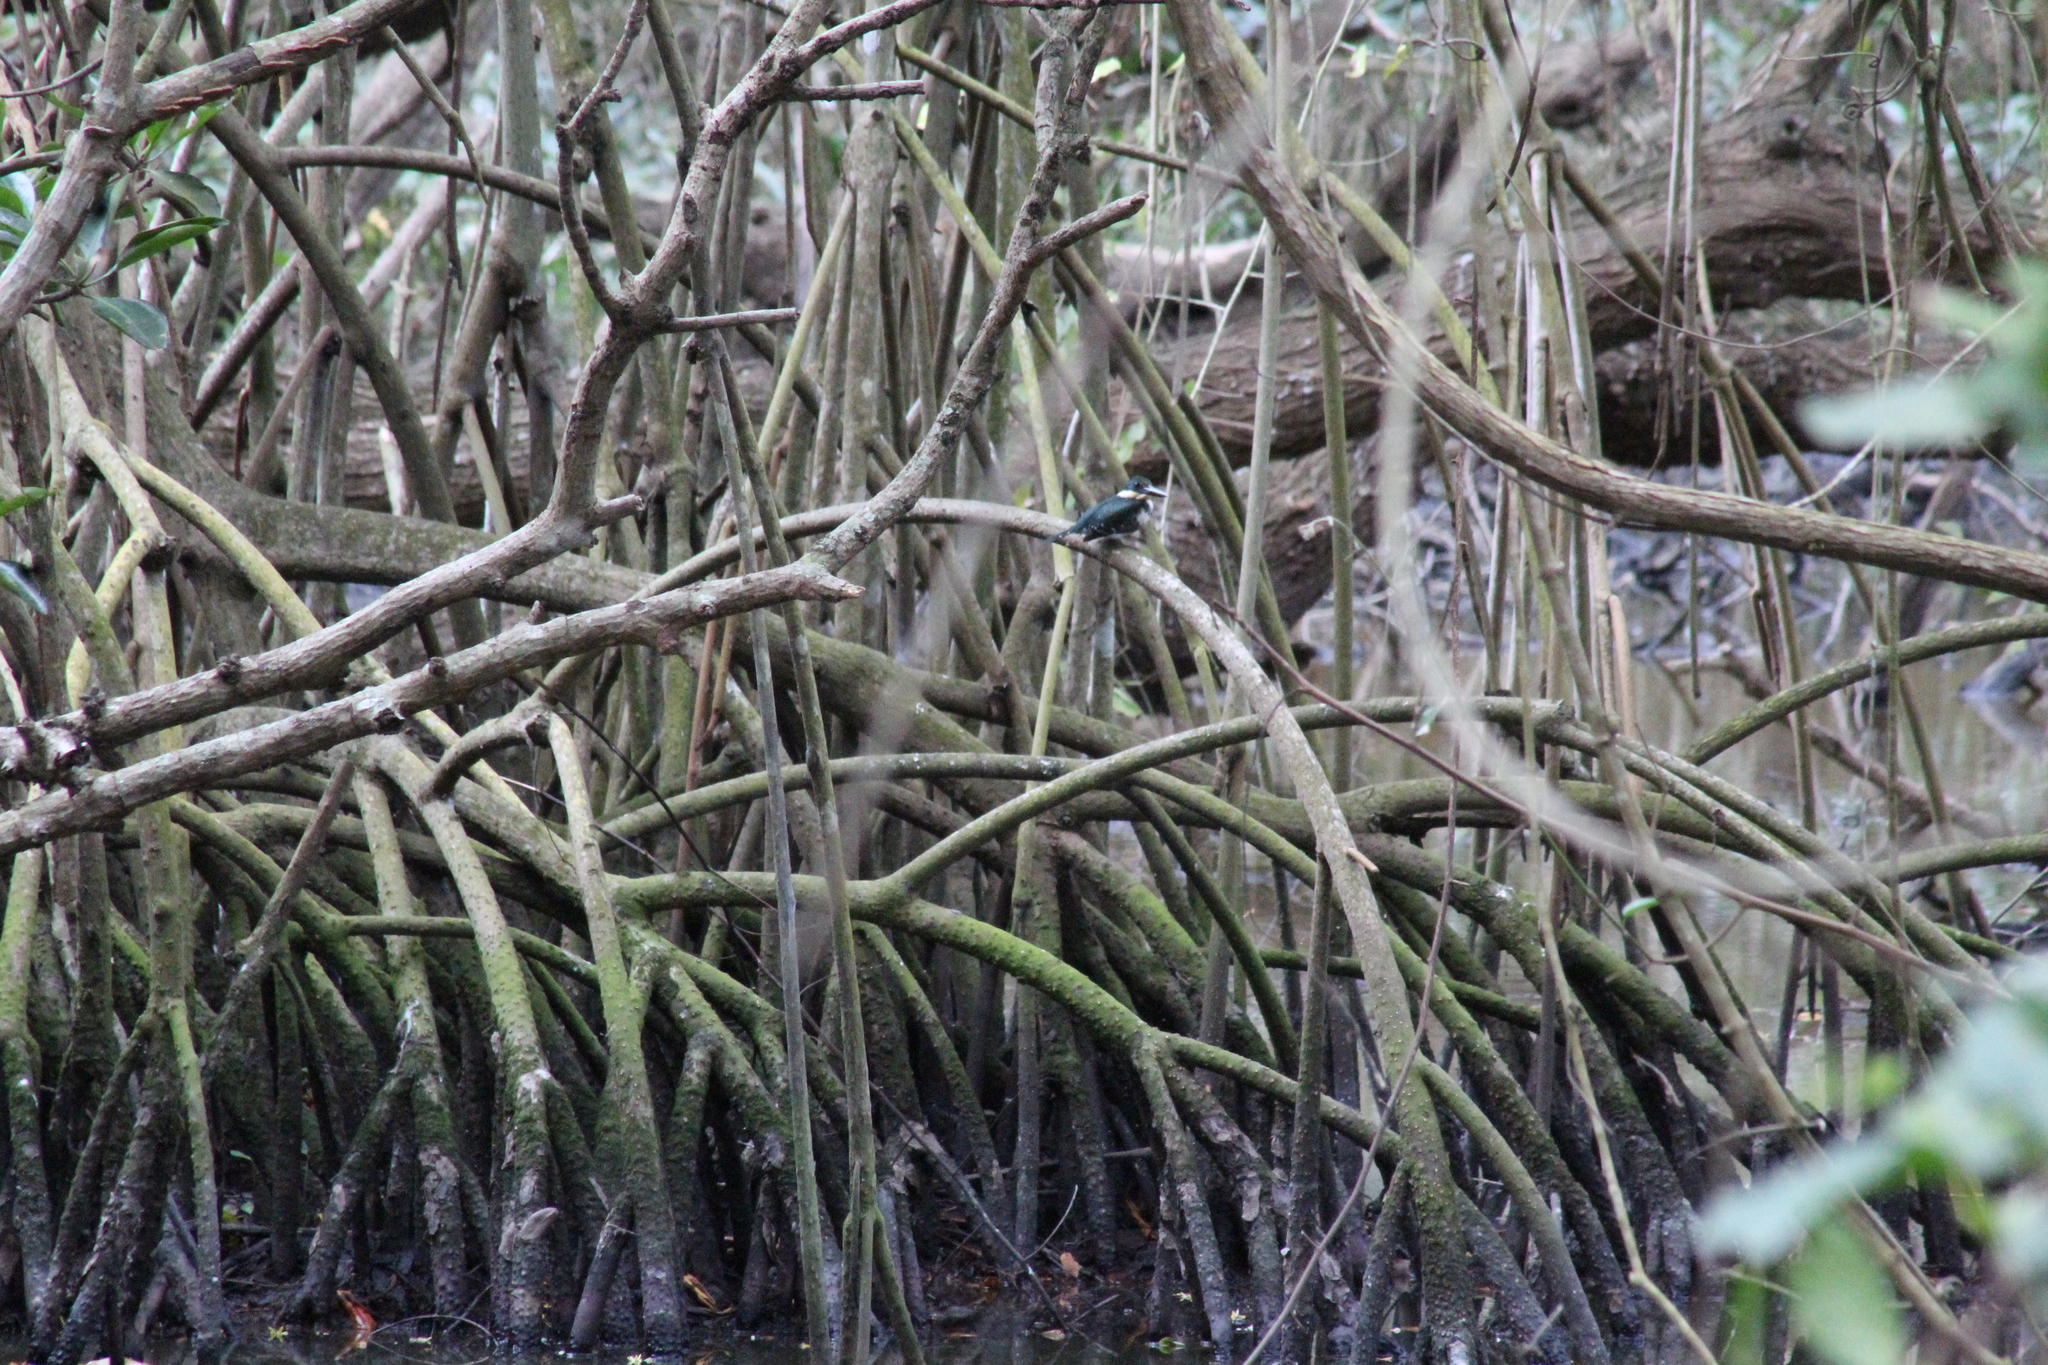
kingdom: Plantae
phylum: Tracheophyta
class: Magnoliopsida
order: Malpighiales
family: Rhizophoraceae
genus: Rhizophora
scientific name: Rhizophora mangle
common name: Red mangrove
